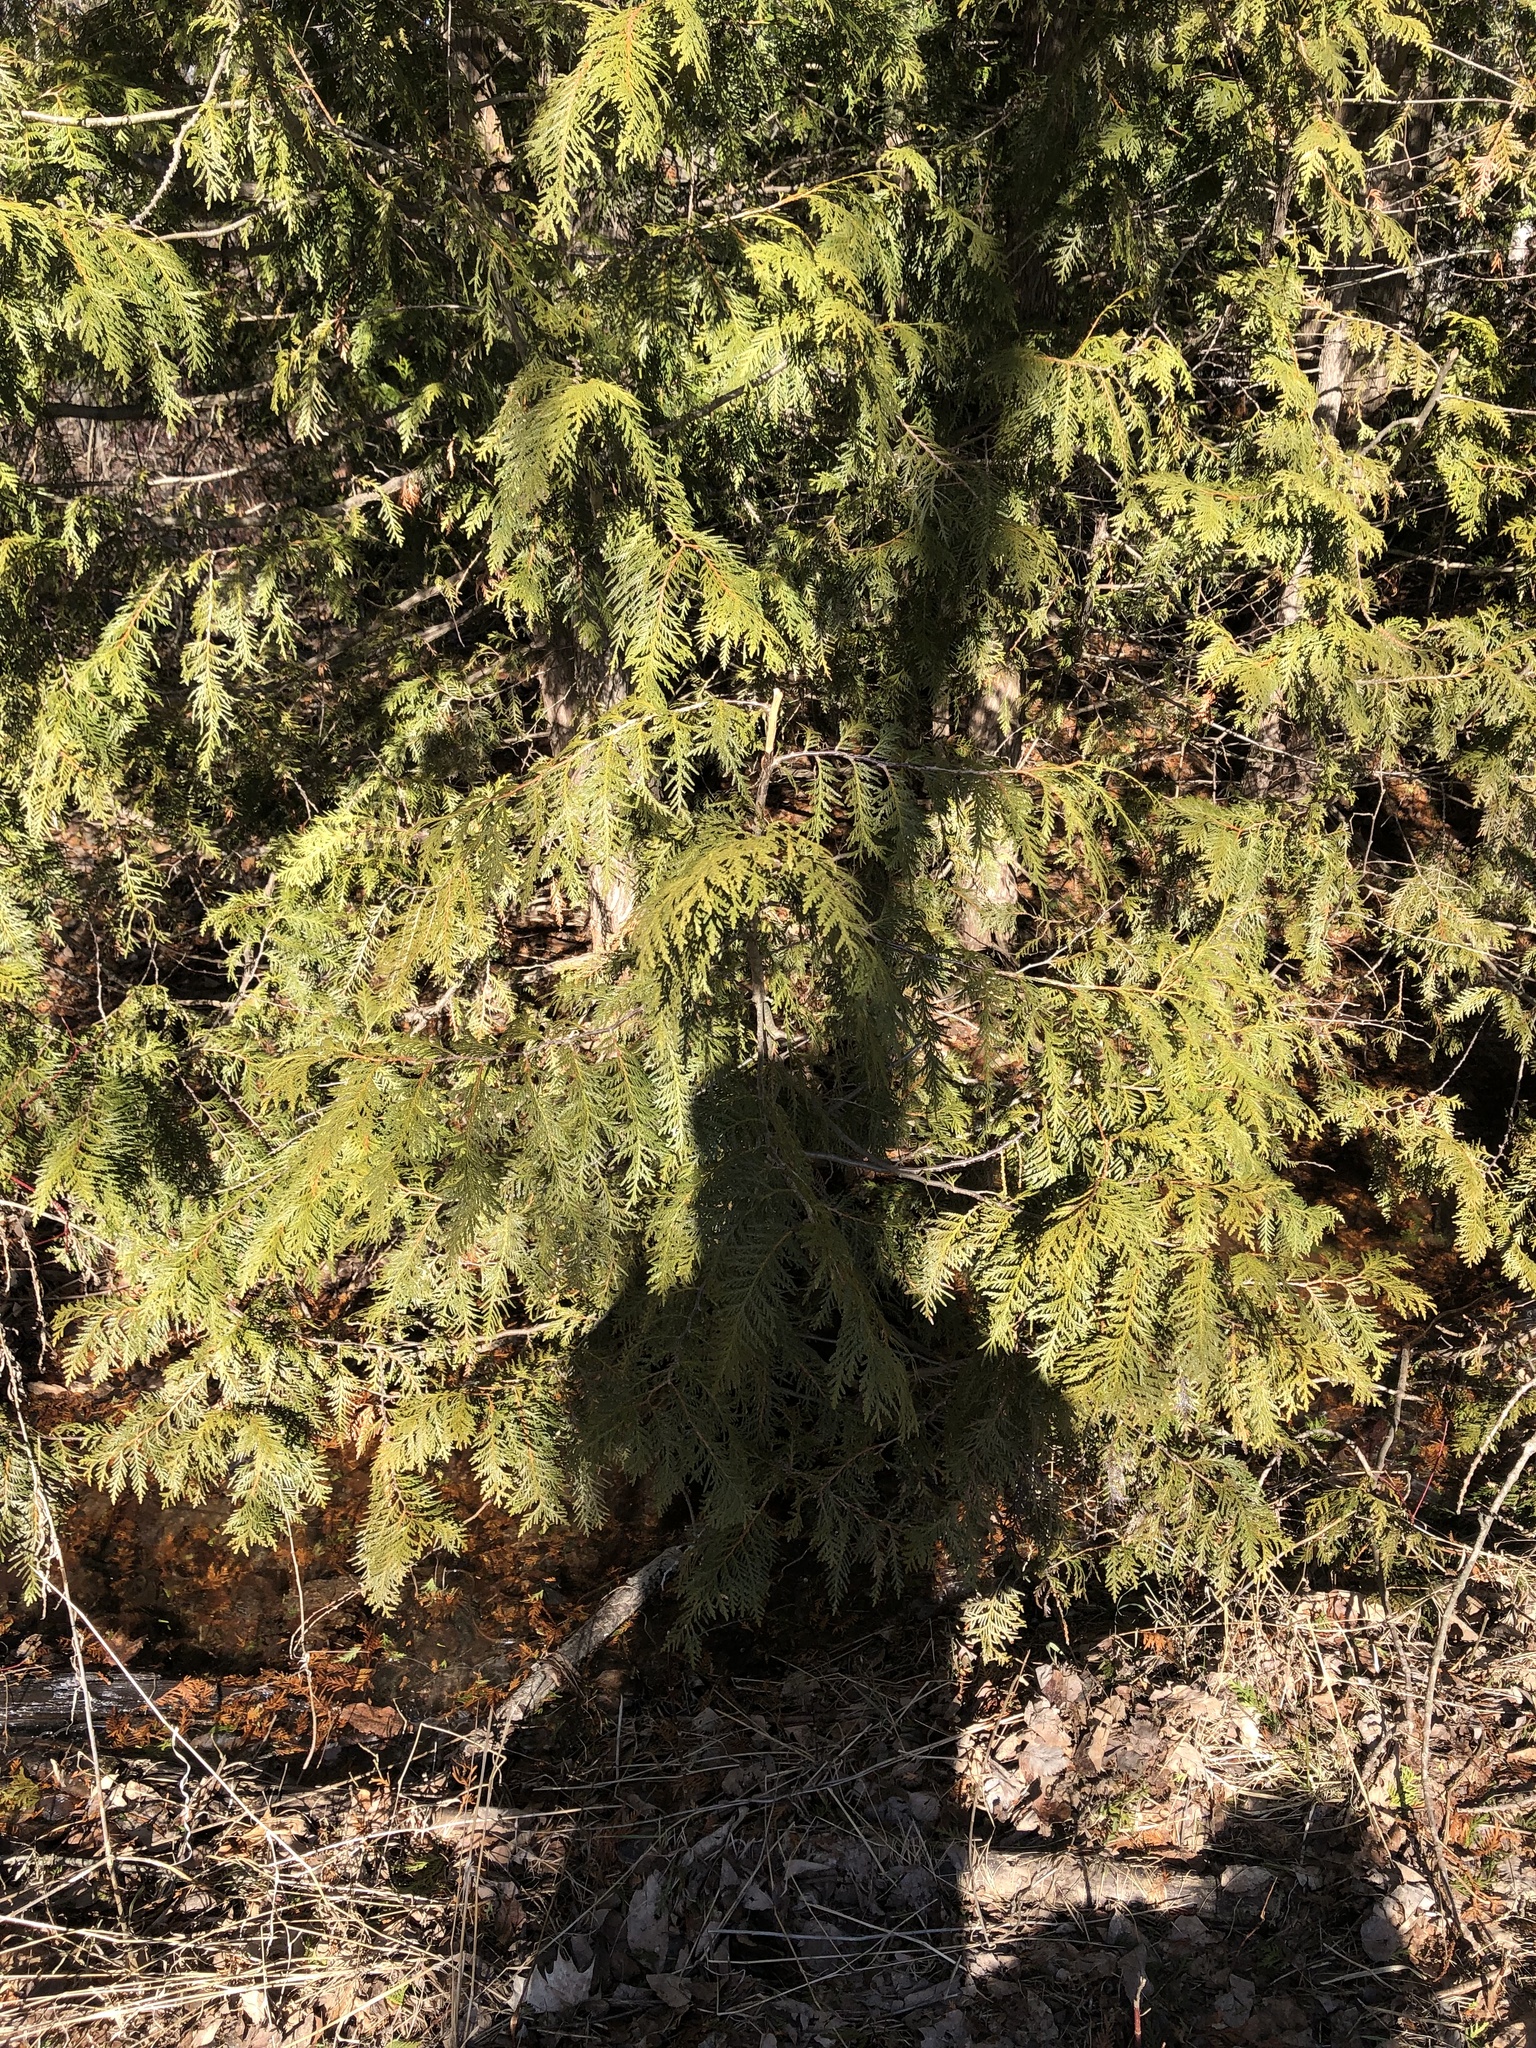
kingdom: Plantae
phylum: Tracheophyta
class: Pinopsida
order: Pinales
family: Cupressaceae
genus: Thuja
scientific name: Thuja occidentalis
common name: Northern white-cedar
